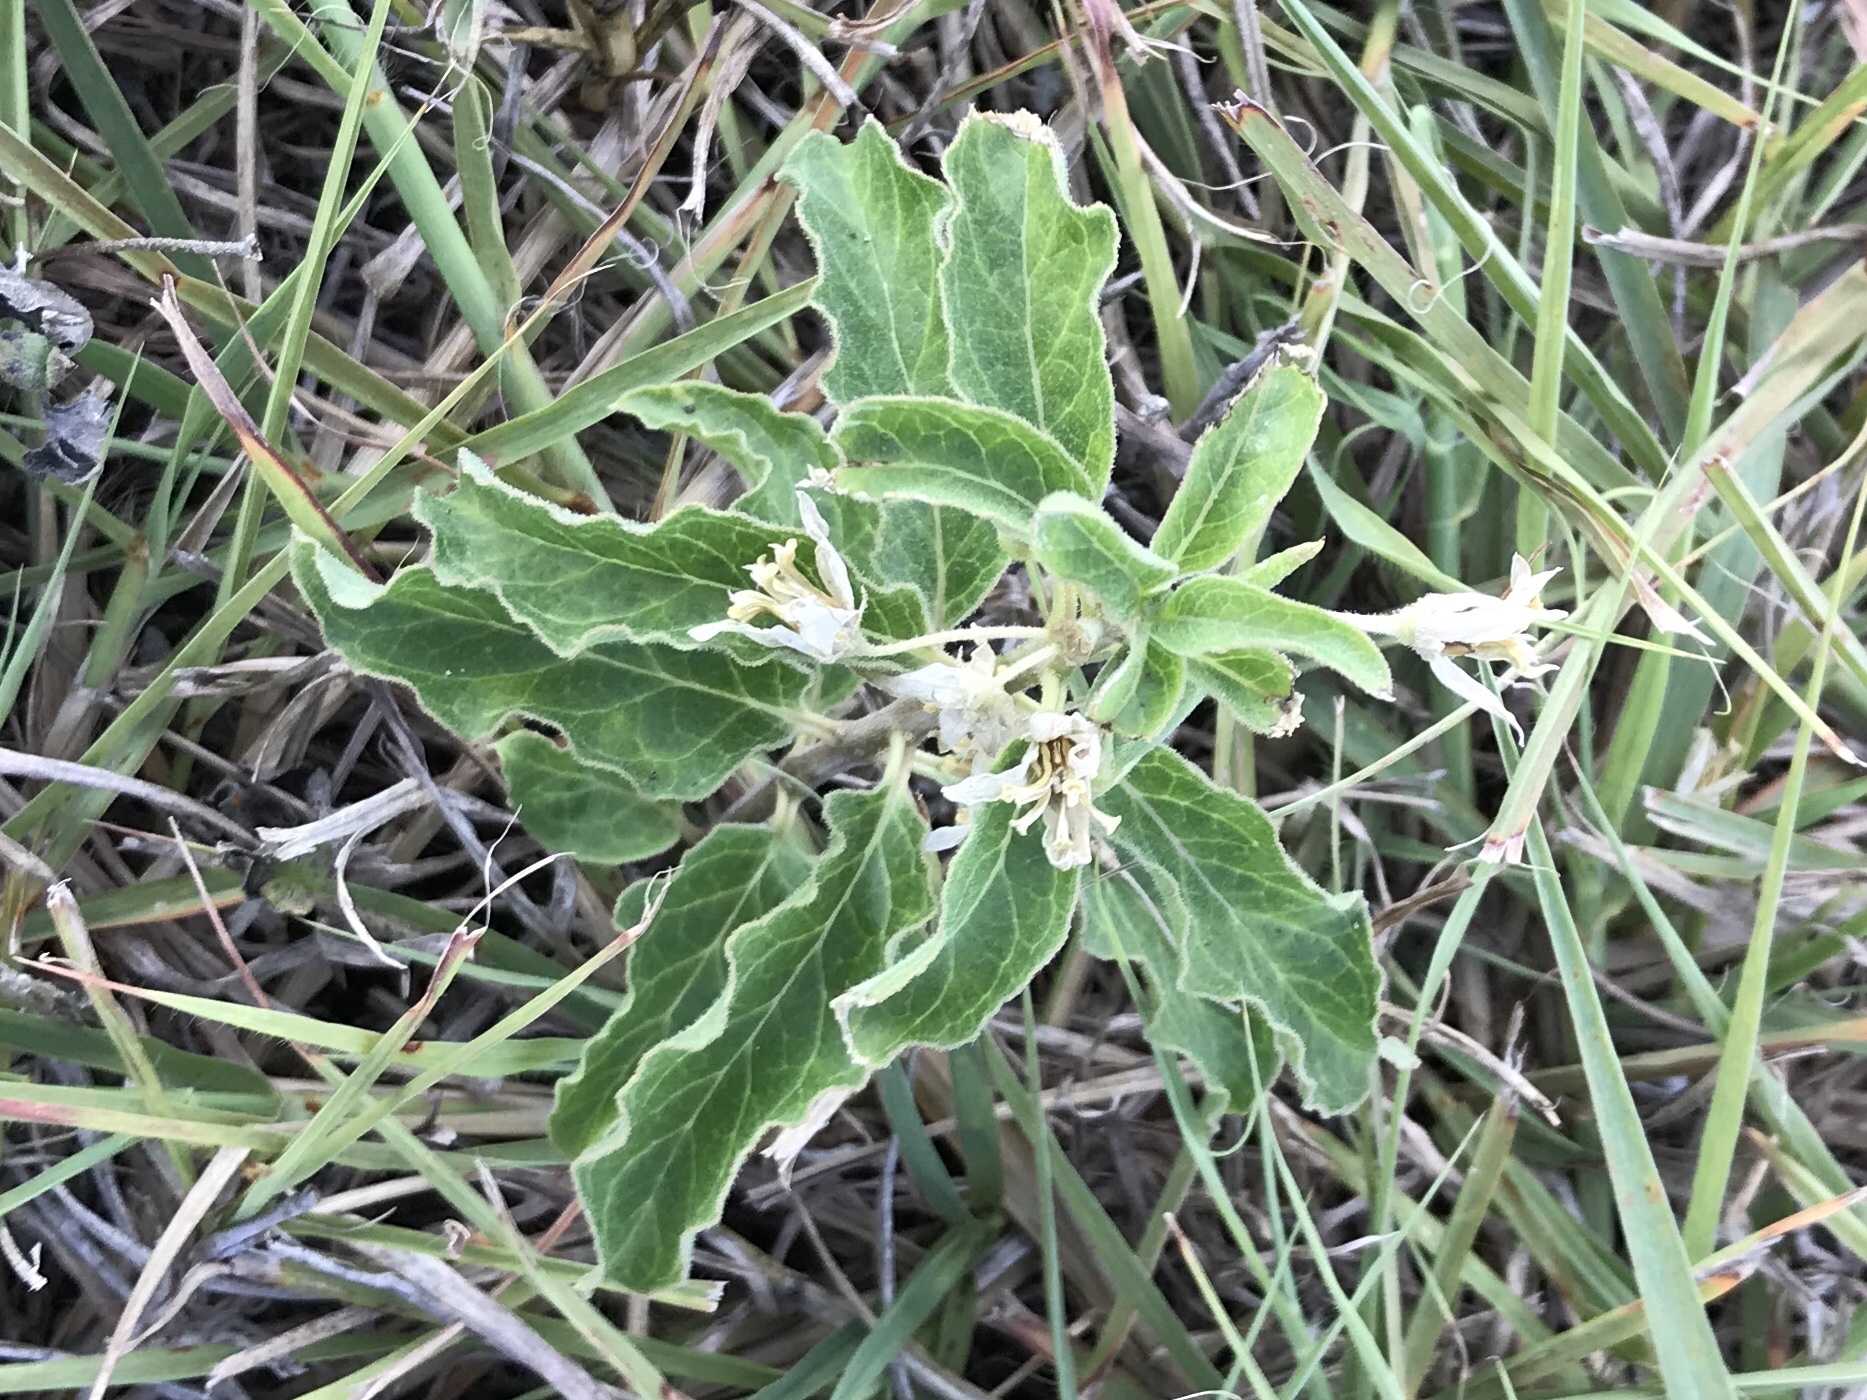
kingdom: Plantae
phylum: Tracheophyta
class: Magnoliopsida
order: Gentianales
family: Apocynaceae
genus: Asclepias
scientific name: Asclepias oenotheroides
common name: Zizotes milkweed
